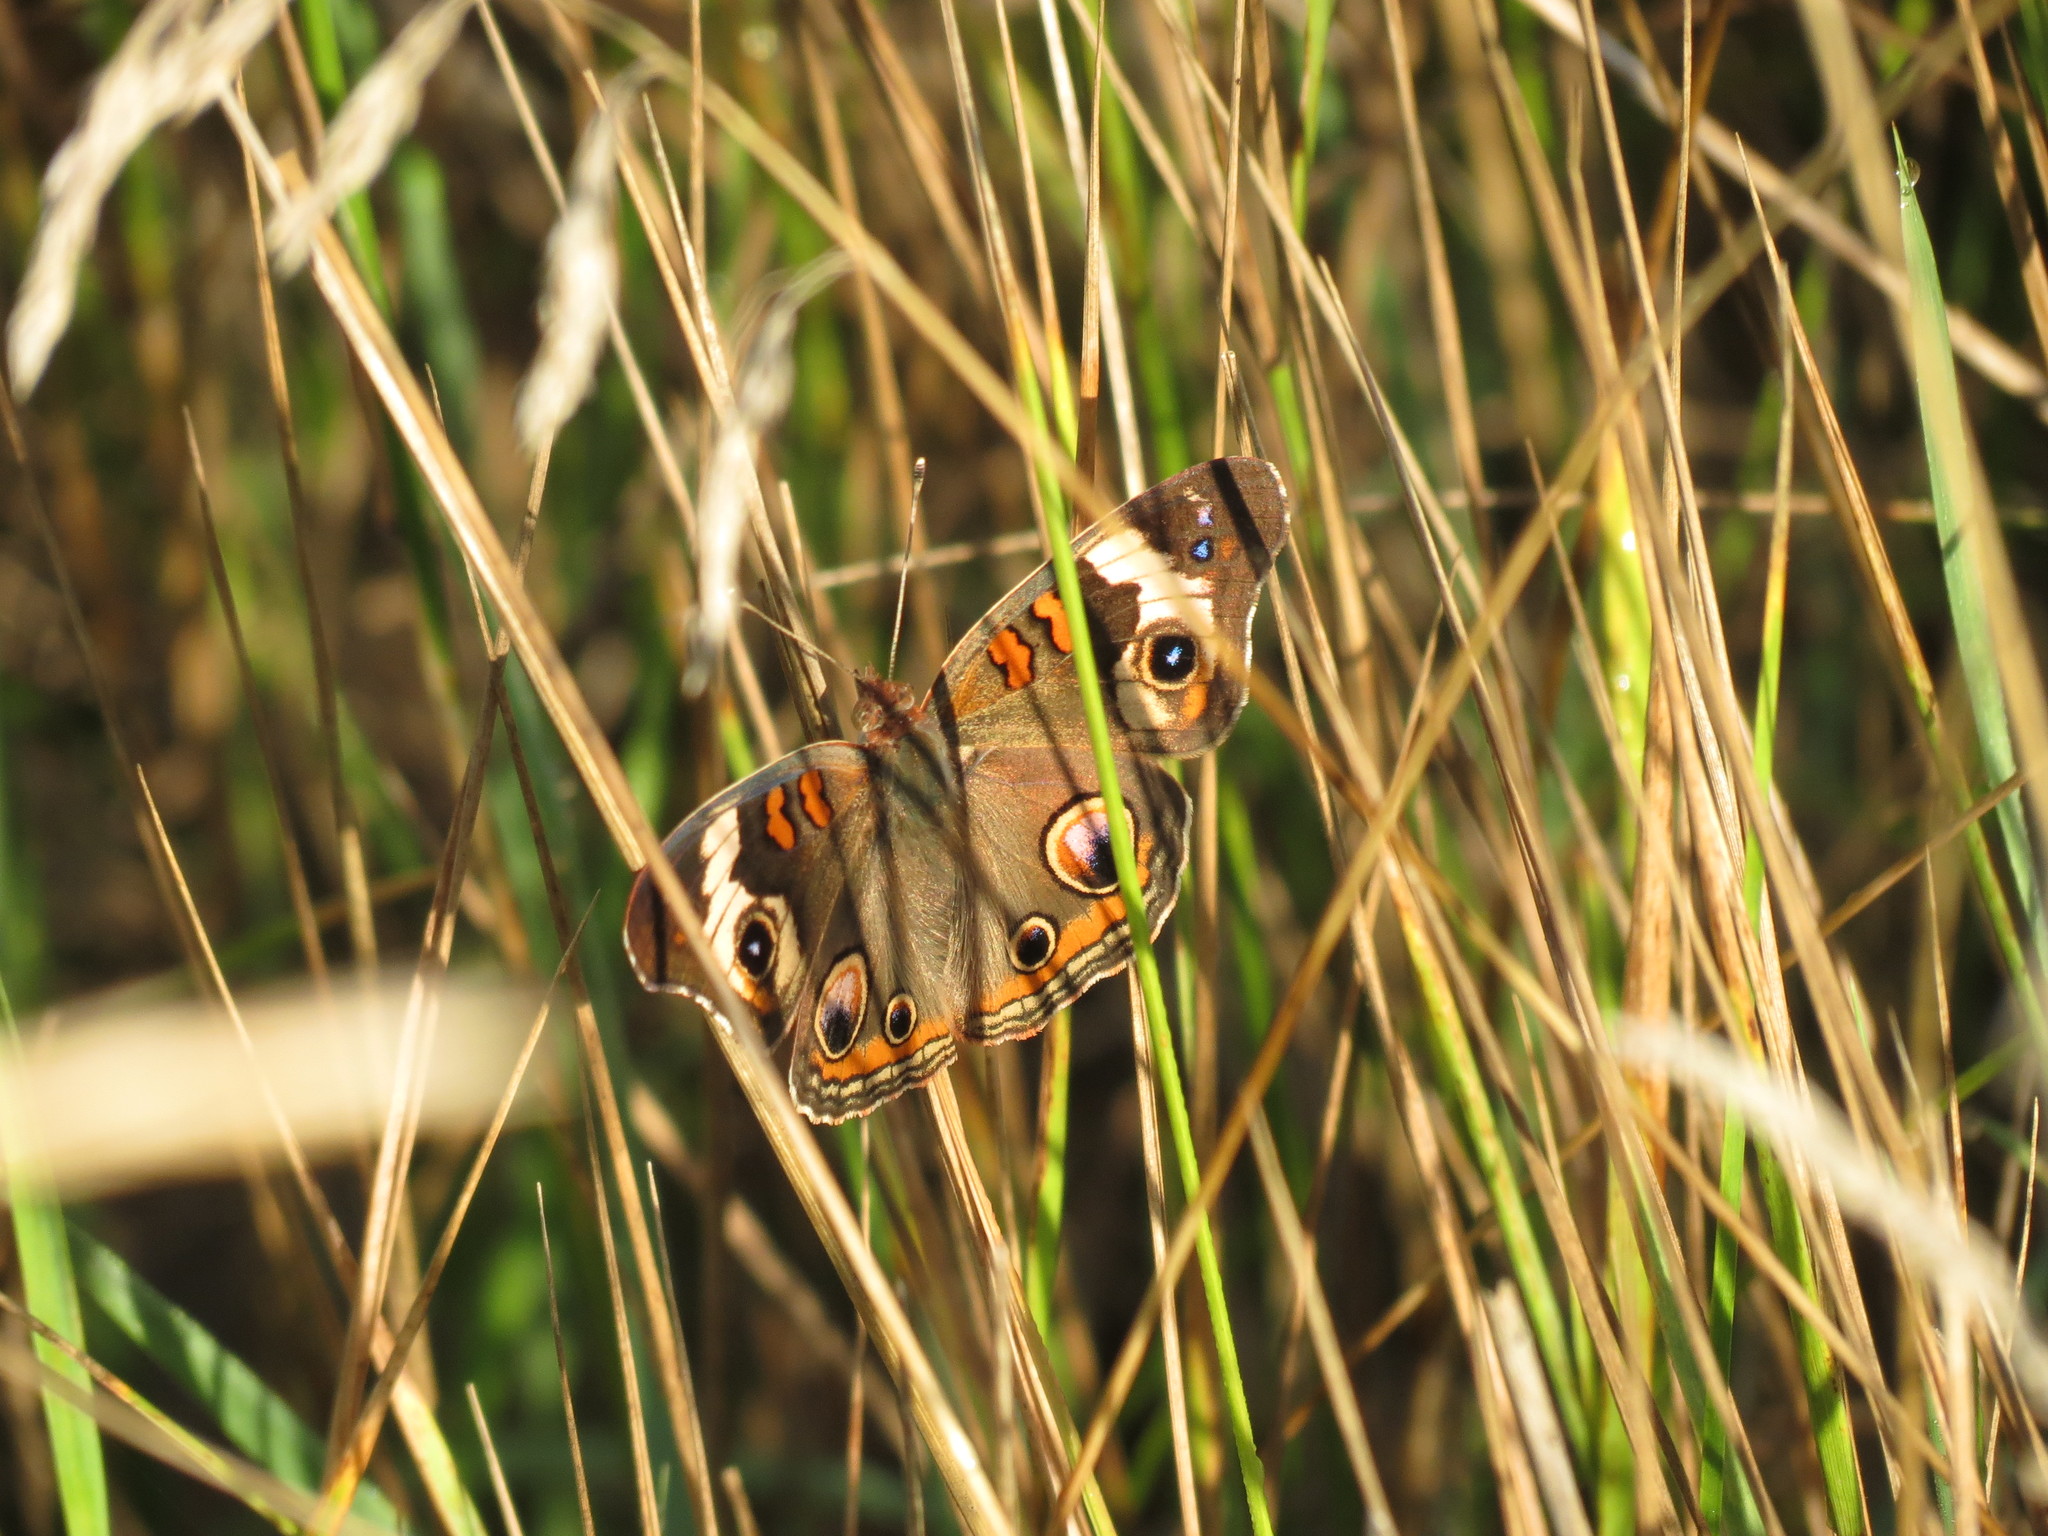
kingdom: Animalia
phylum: Arthropoda
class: Insecta
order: Lepidoptera
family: Nymphalidae
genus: Junonia
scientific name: Junonia coenia
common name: Common buckeye
